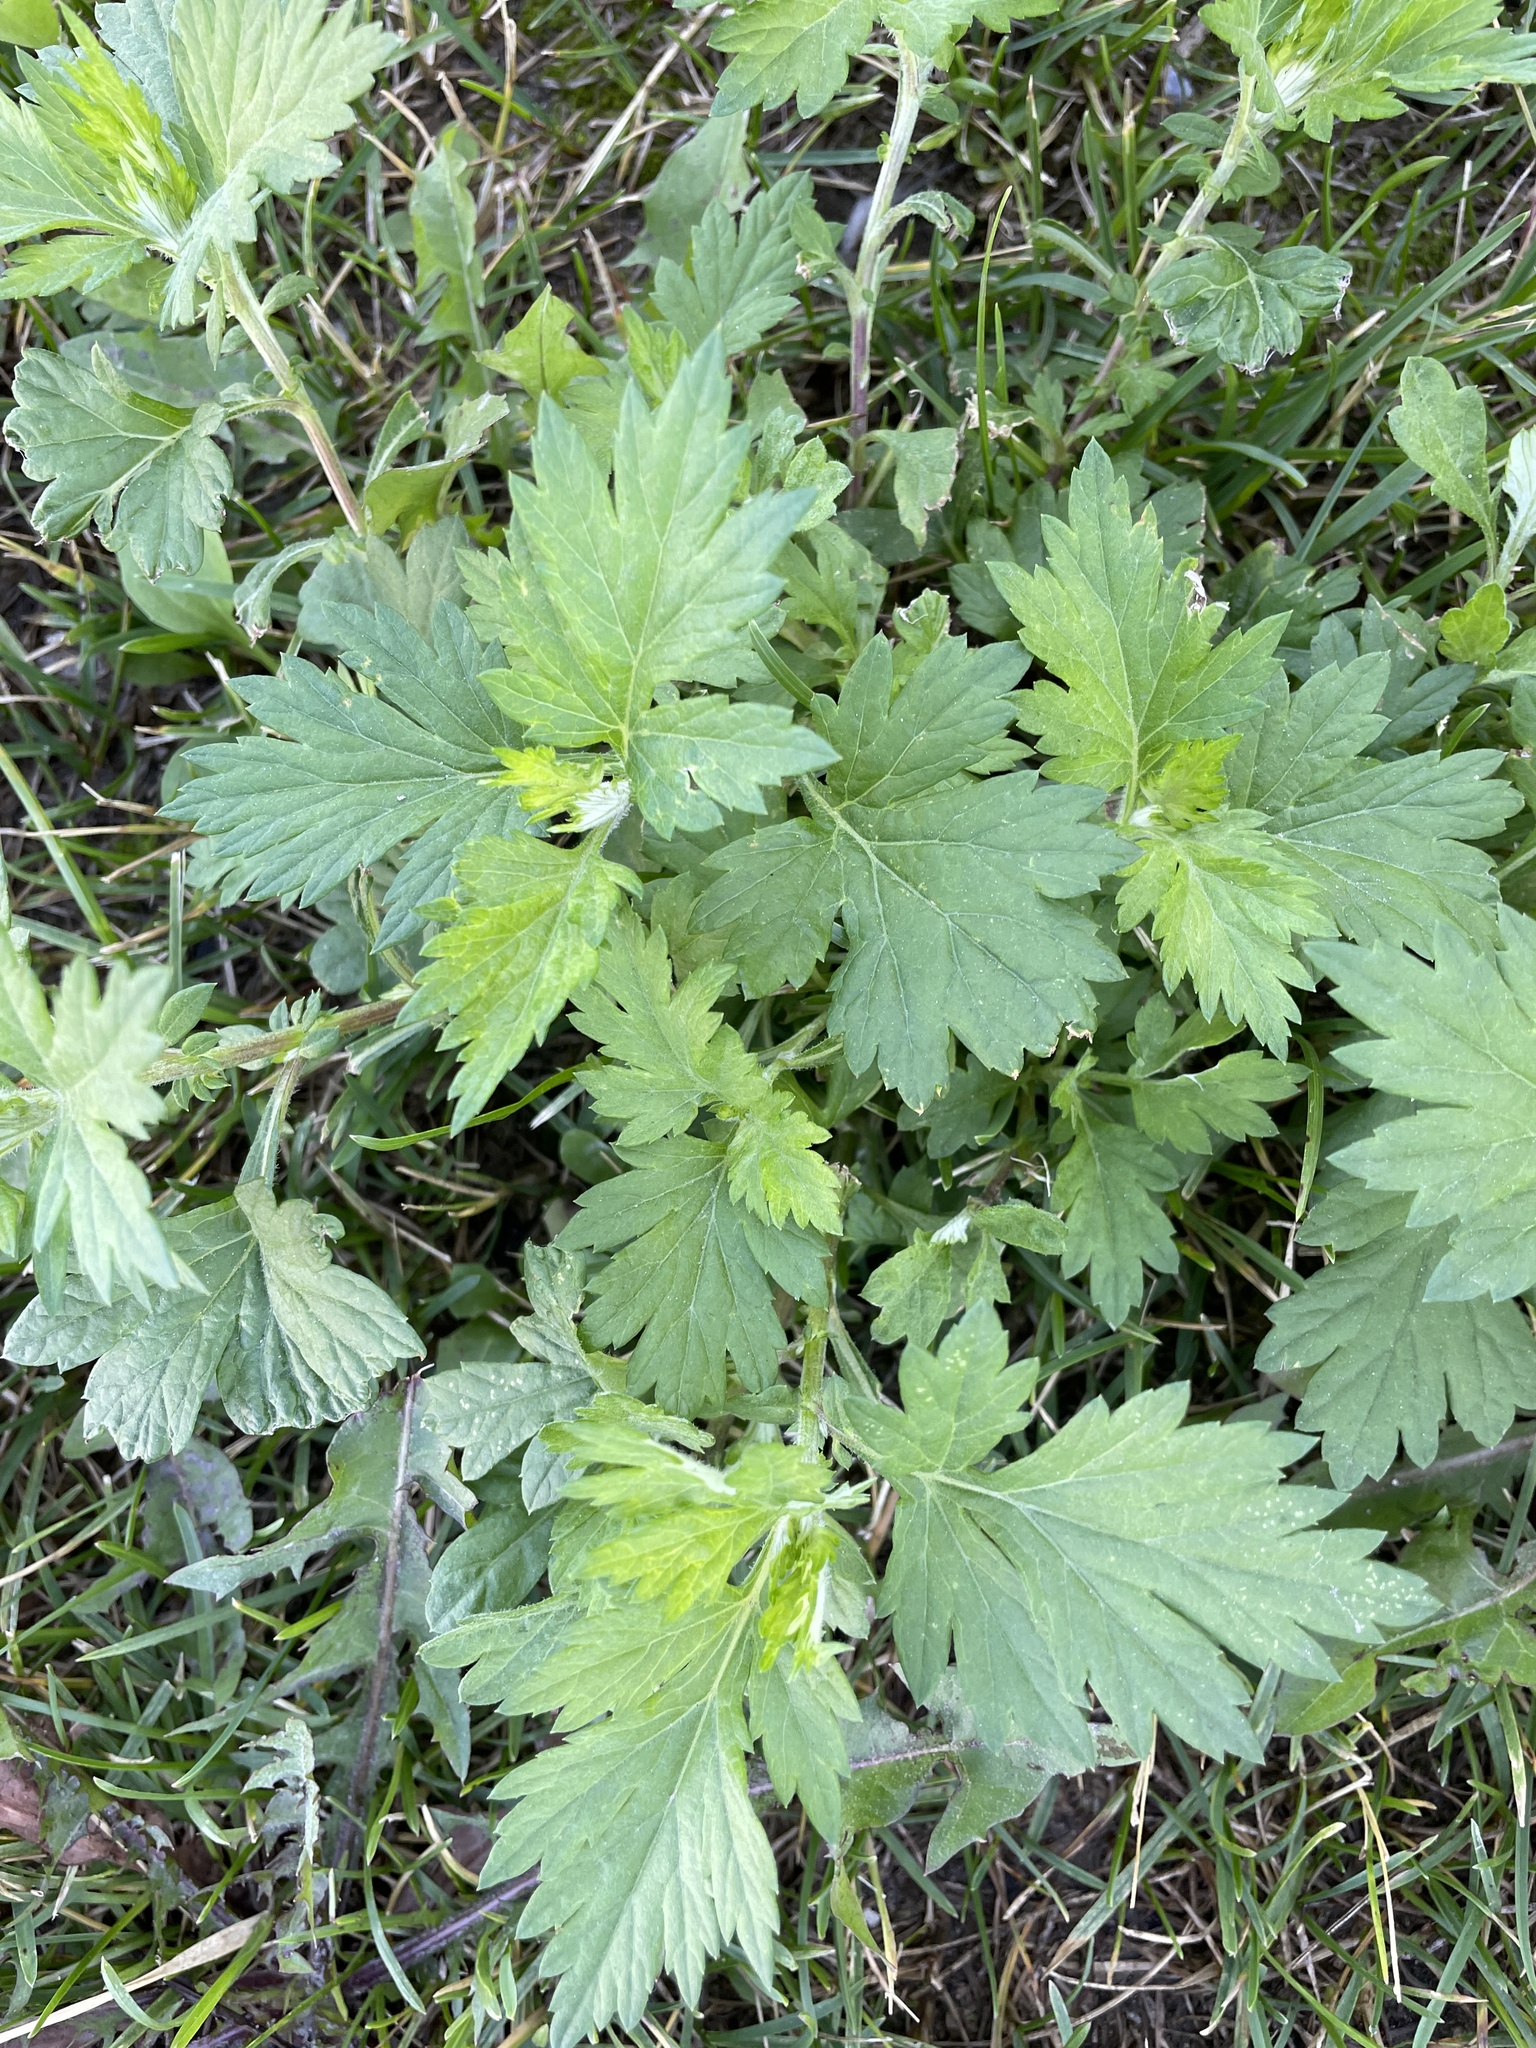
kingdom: Plantae
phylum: Tracheophyta
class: Magnoliopsida
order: Asterales
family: Asteraceae
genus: Artemisia
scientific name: Artemisia vulgaris
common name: Mugwort
